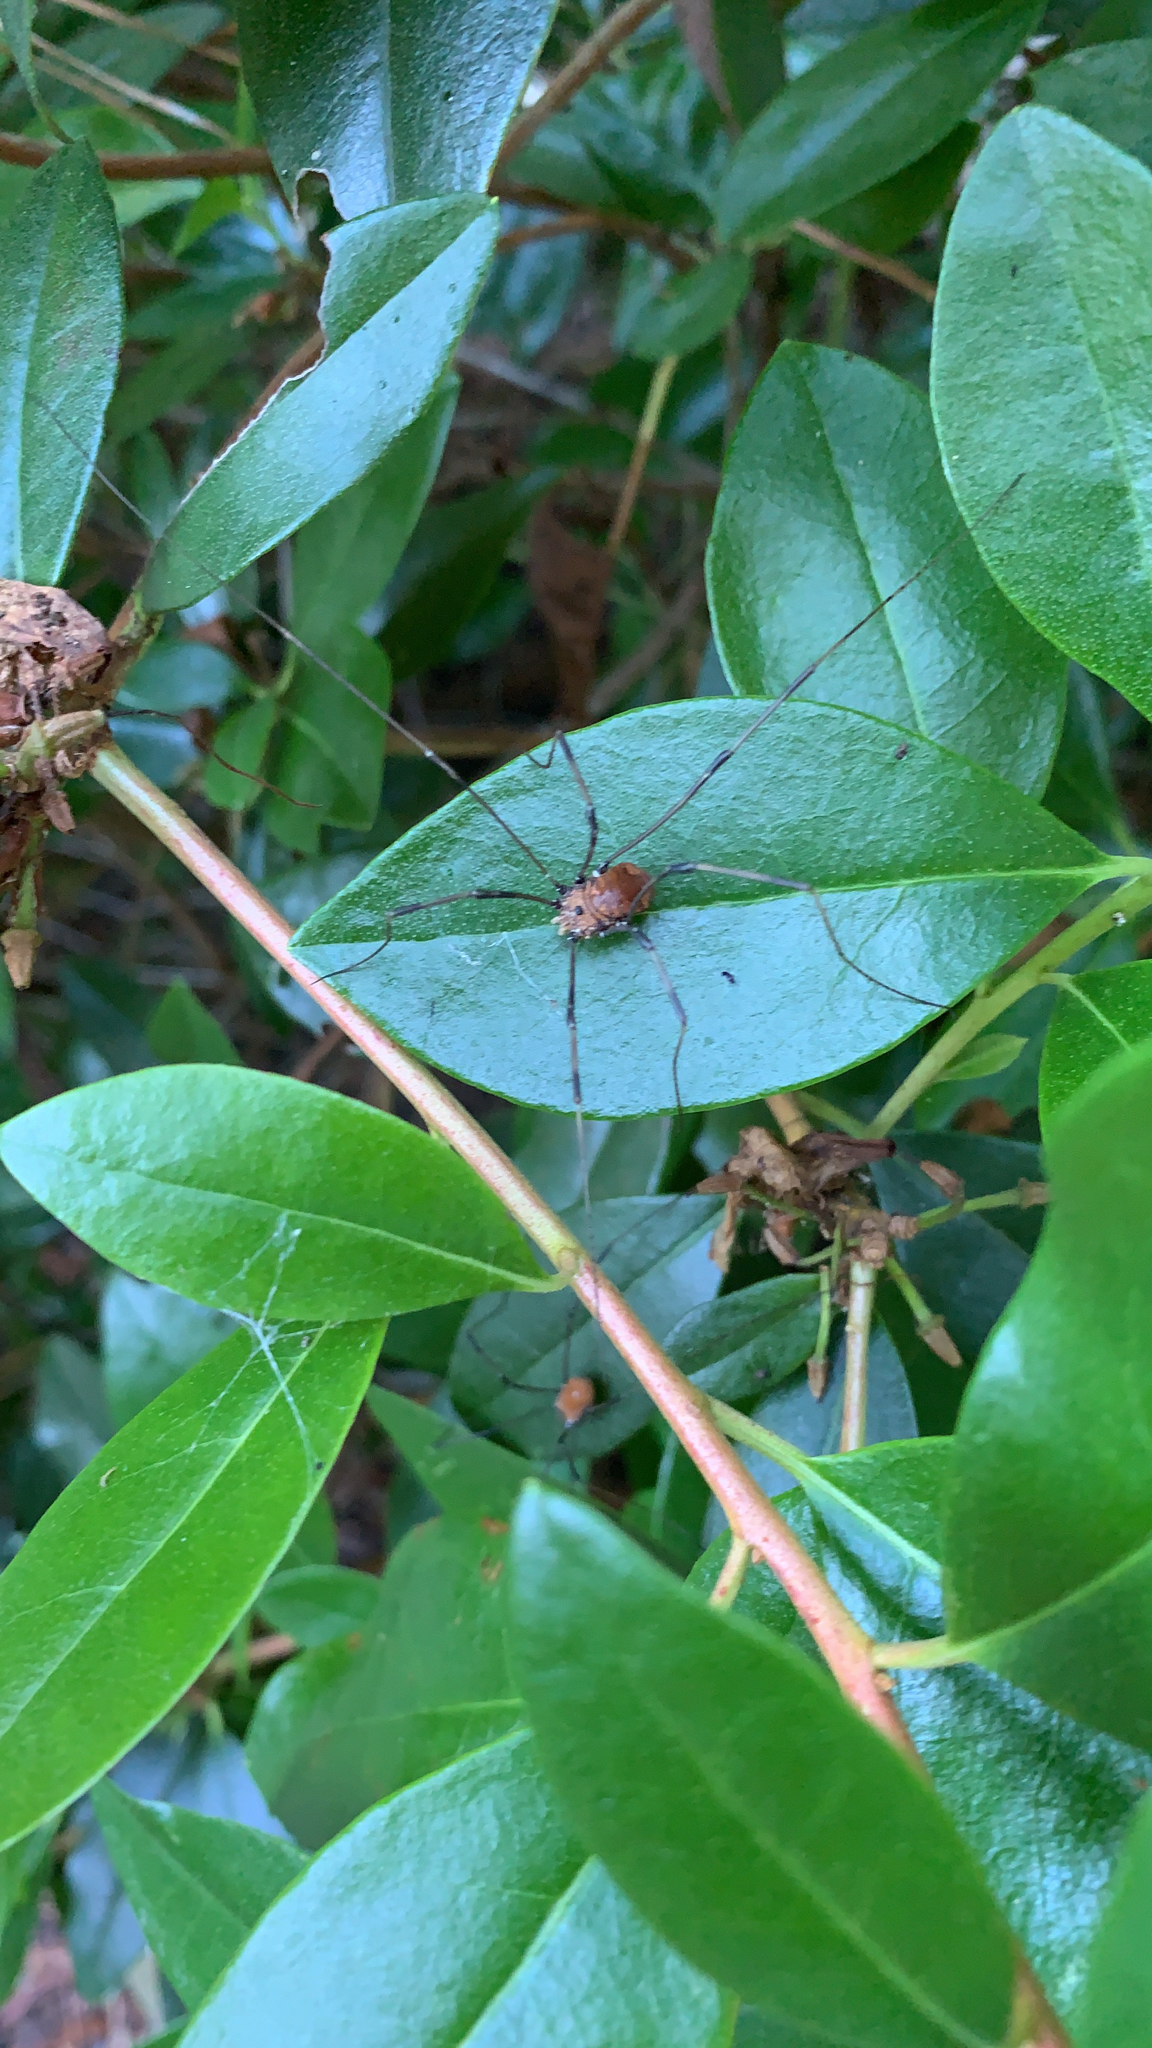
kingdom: Animalia
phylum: Arthropoda
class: Arachnida
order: Opiliones
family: Sclerosomatidae
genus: Leiobunum
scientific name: Leiobunum verrucosum
